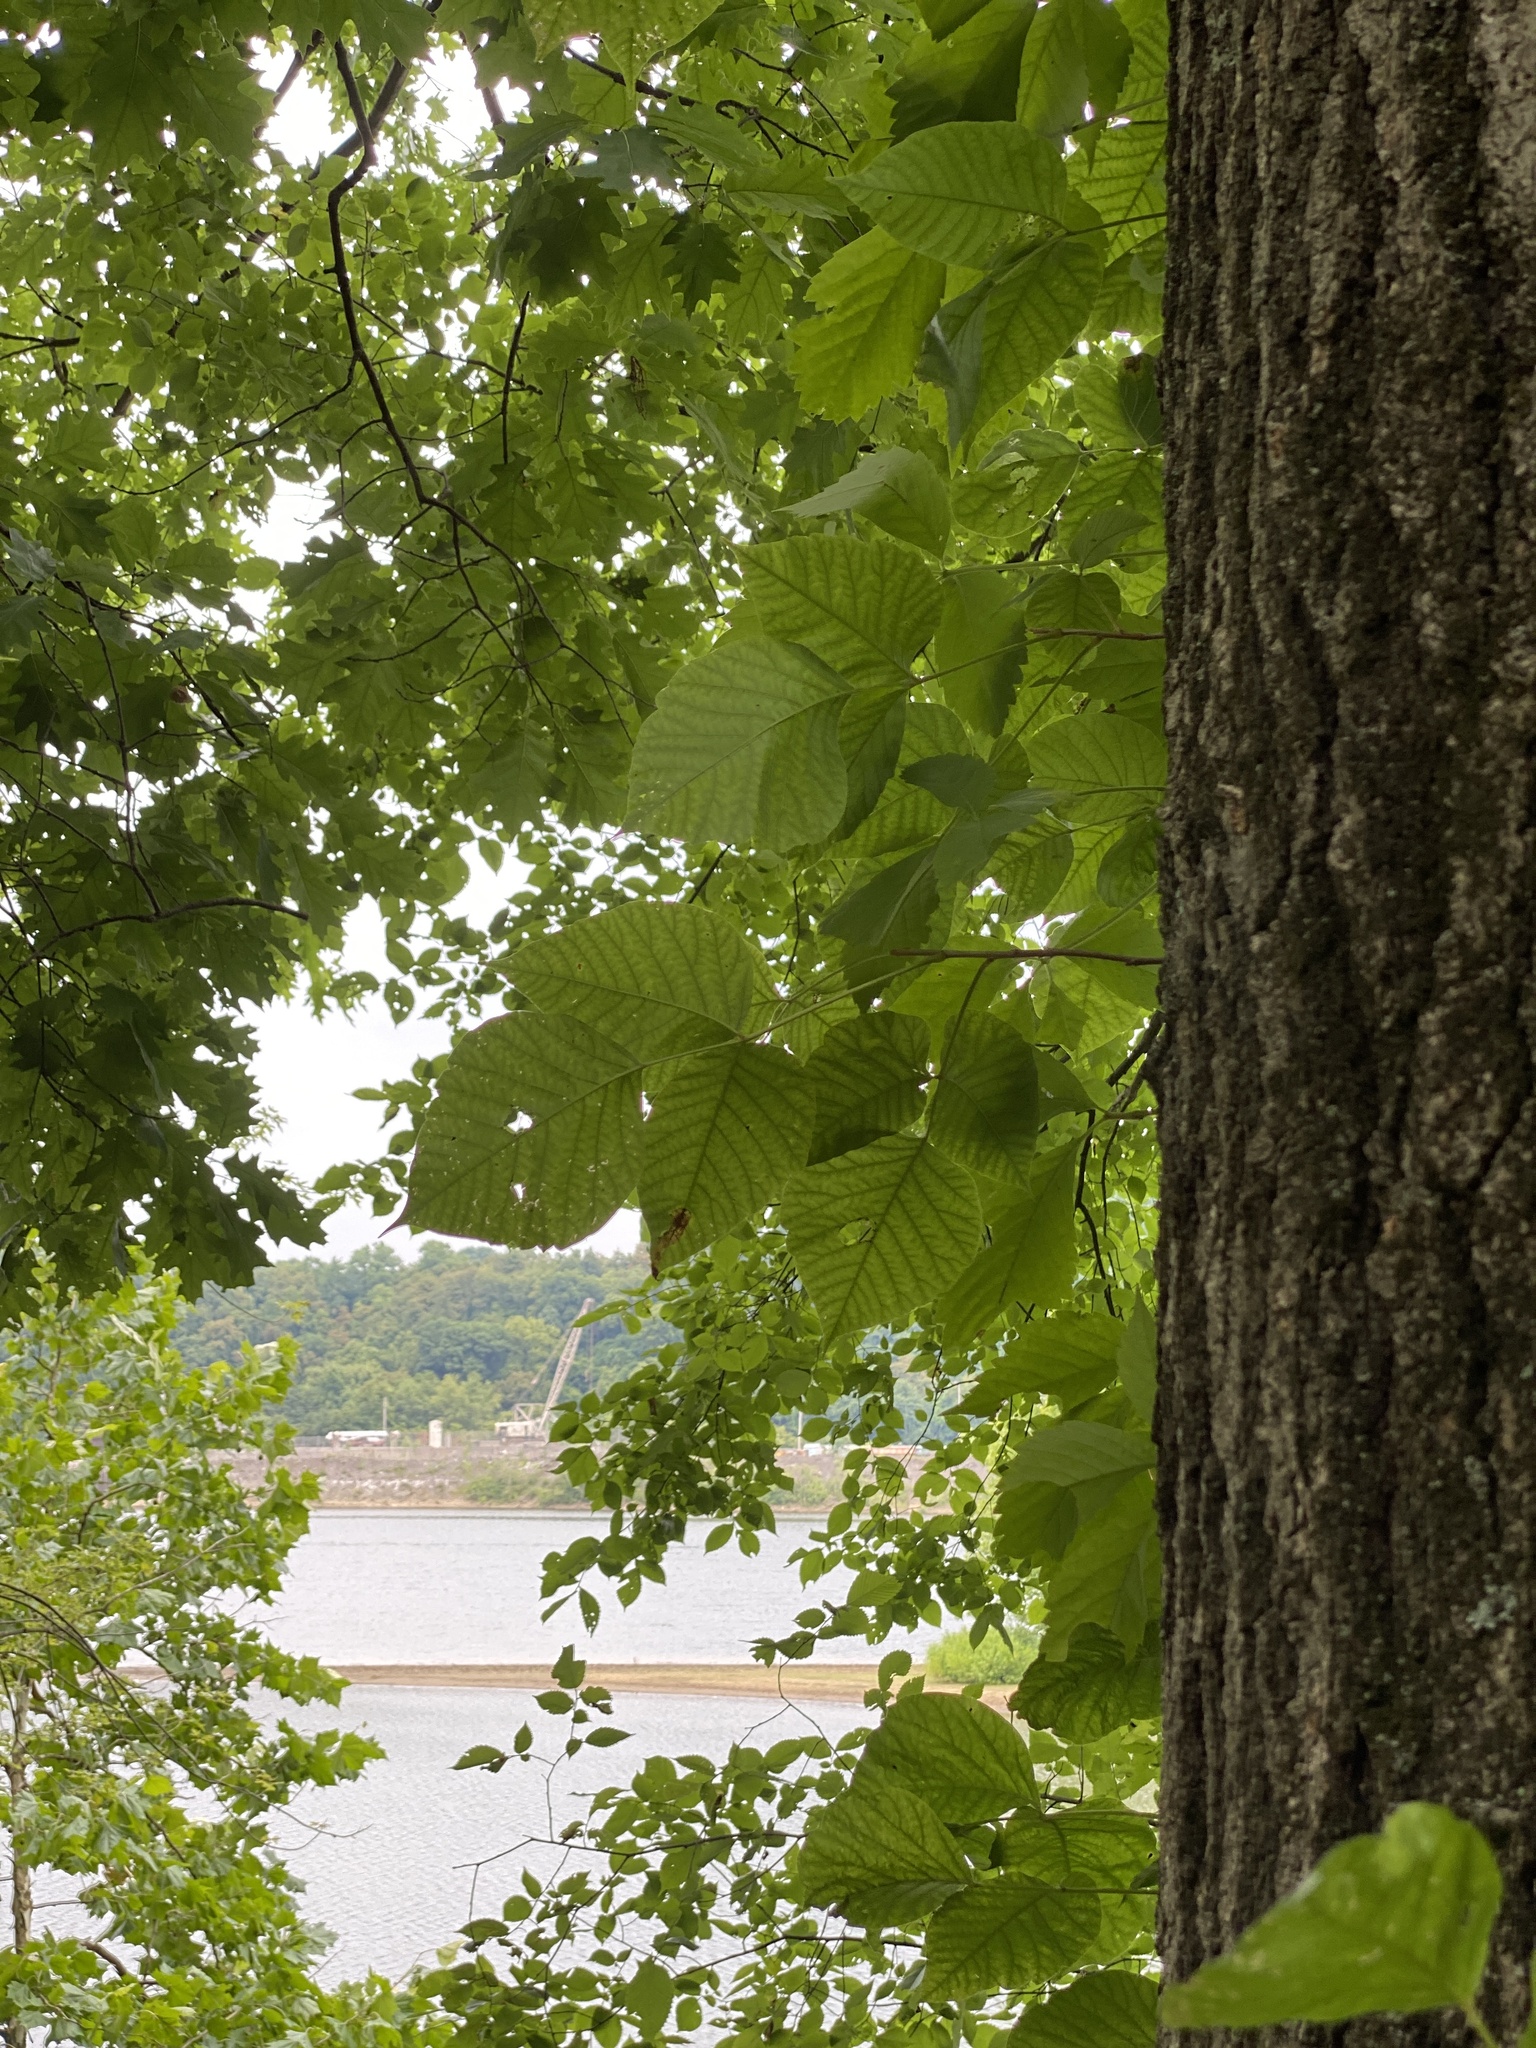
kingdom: Plantae
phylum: Tracheophyta
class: Magnoliopsida
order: Sapindales
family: Anacardiaceae
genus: Toxicodendron
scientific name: Toxicodendron radicans
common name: Poison ivy
